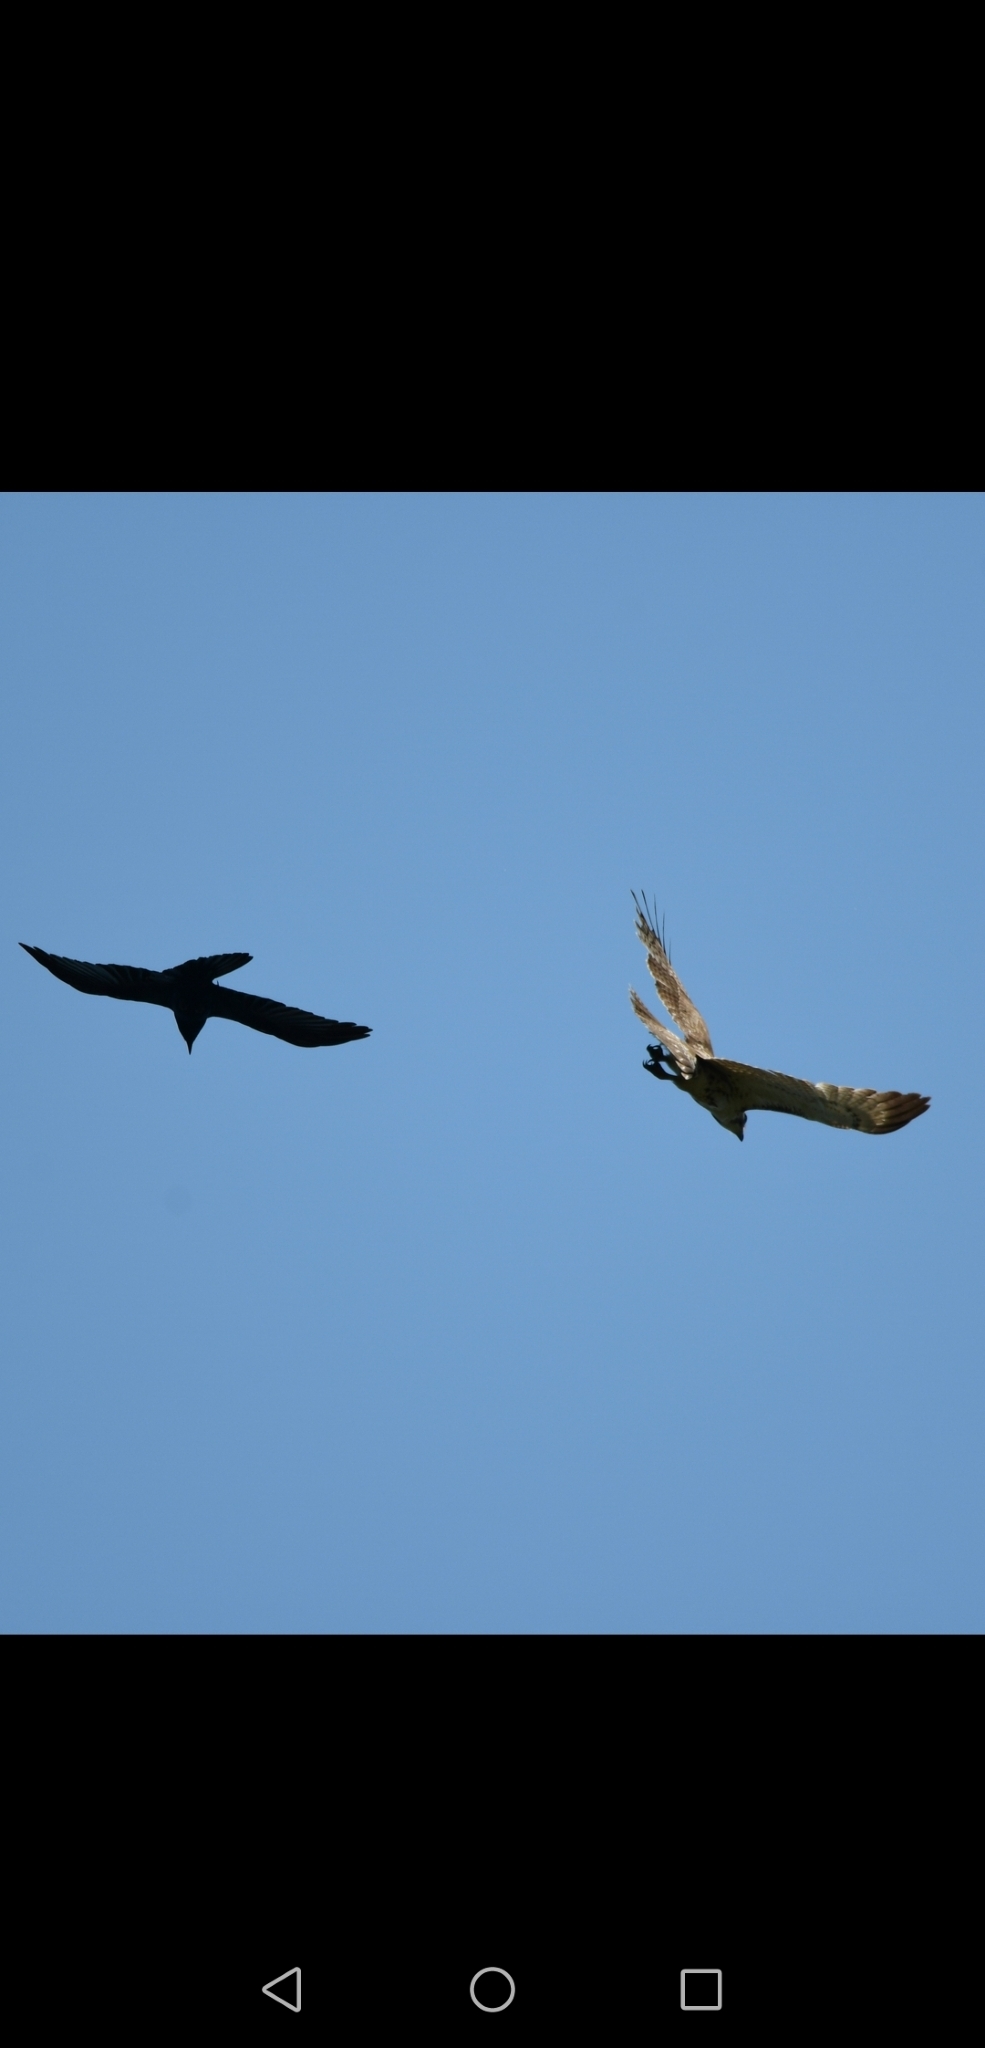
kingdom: Animalia
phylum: Chordata
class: Aves
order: Accipitriformes
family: Accipitridae
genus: Buteo
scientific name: Buteo jamaicensis
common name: Red-tailed hawk
